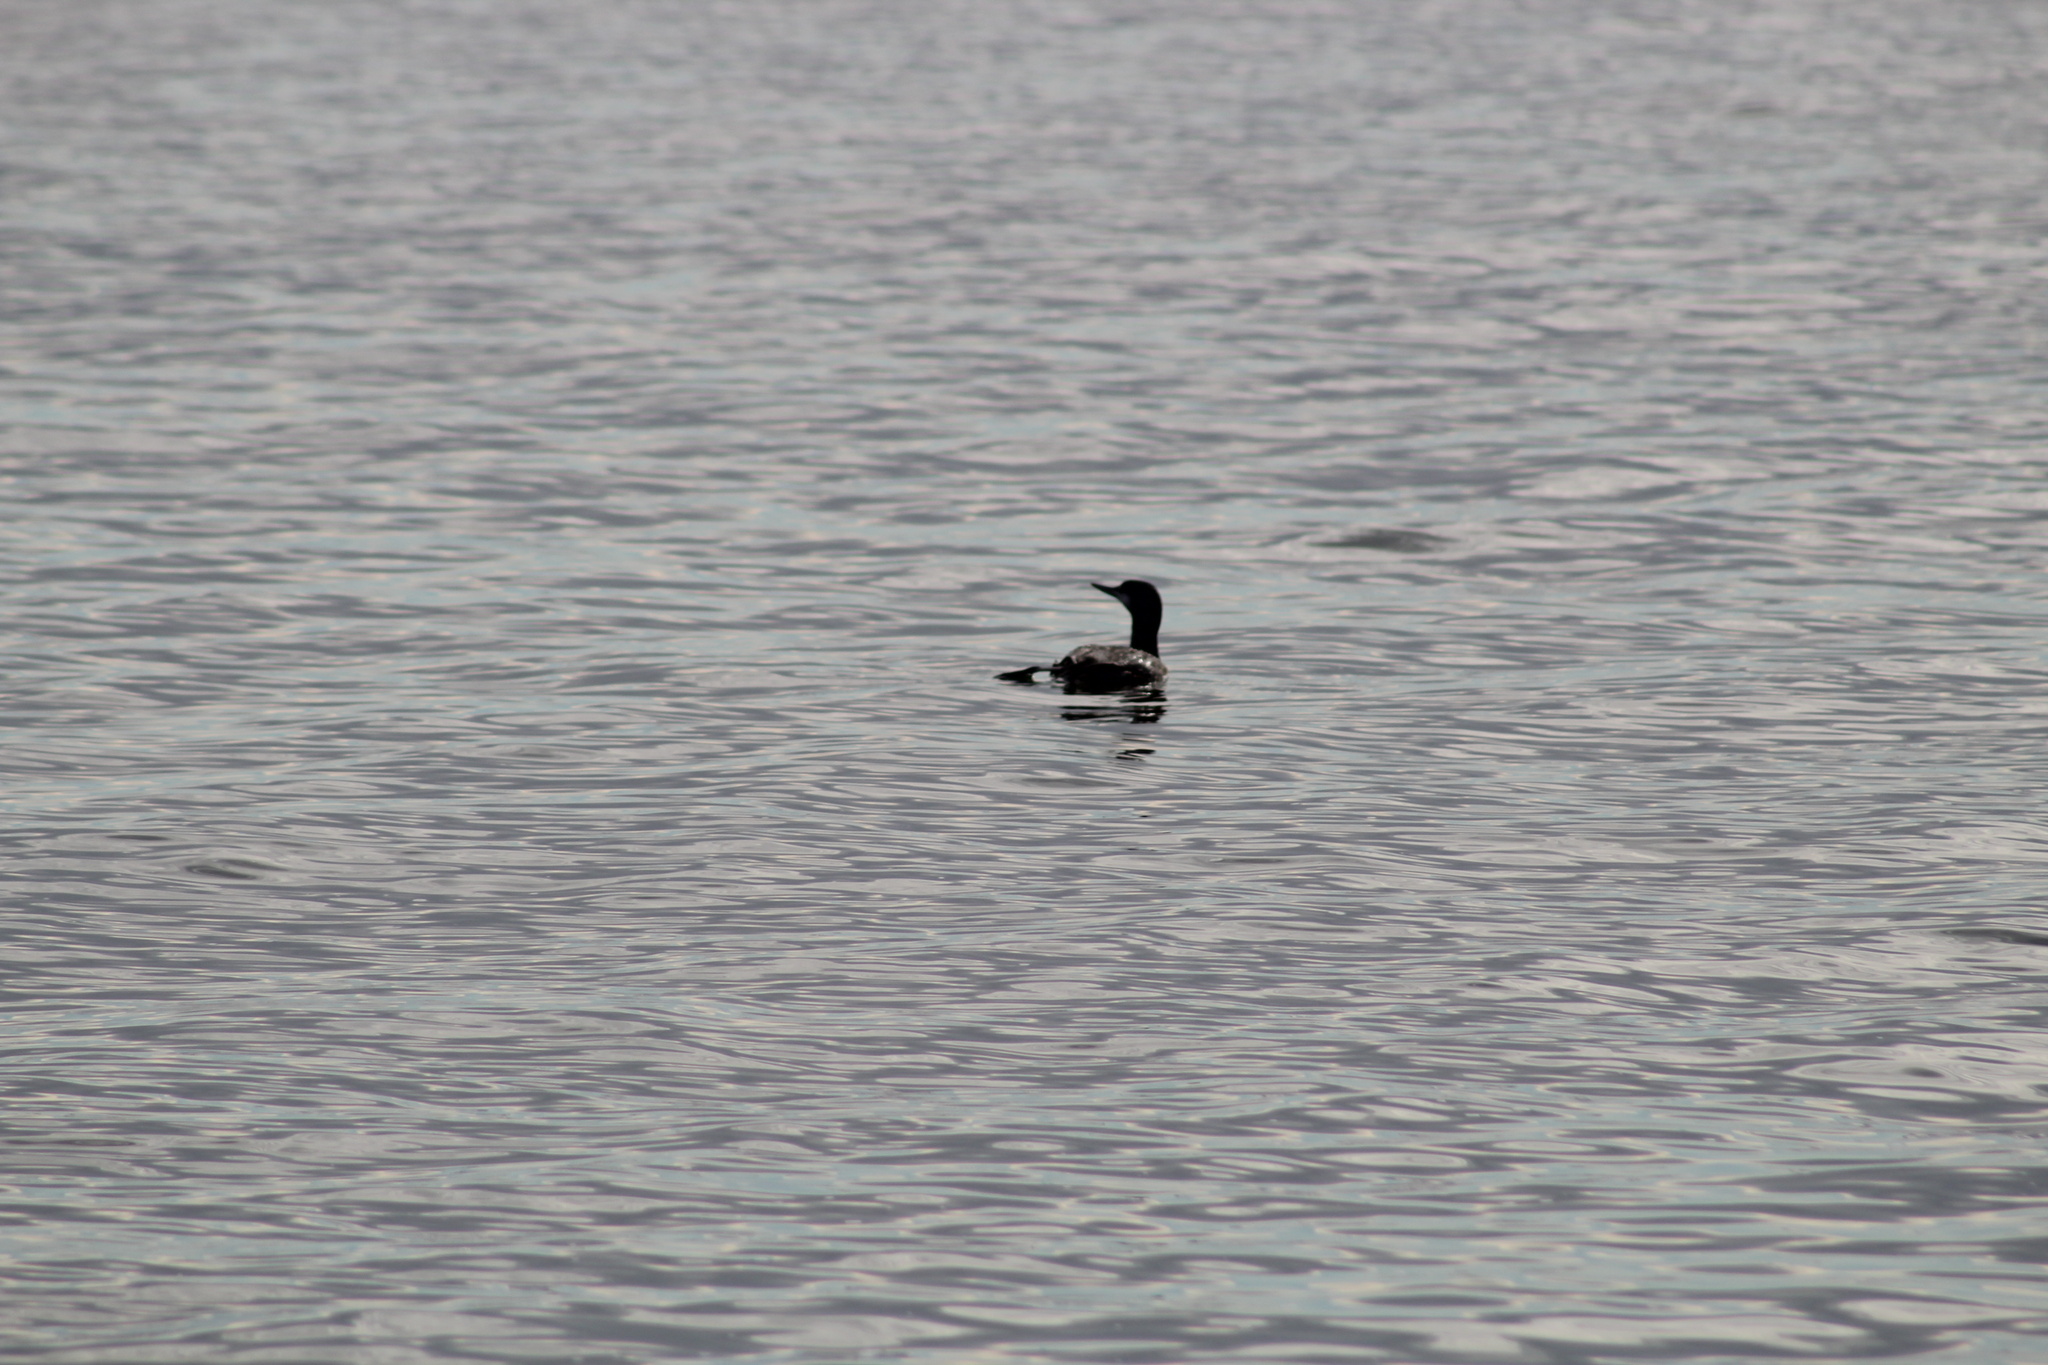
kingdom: Animalia
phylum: Chordata
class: Aves
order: Gaviiformes
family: Gaviidae
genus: Gavia
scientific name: Gavia stellata
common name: Red-throated loon
